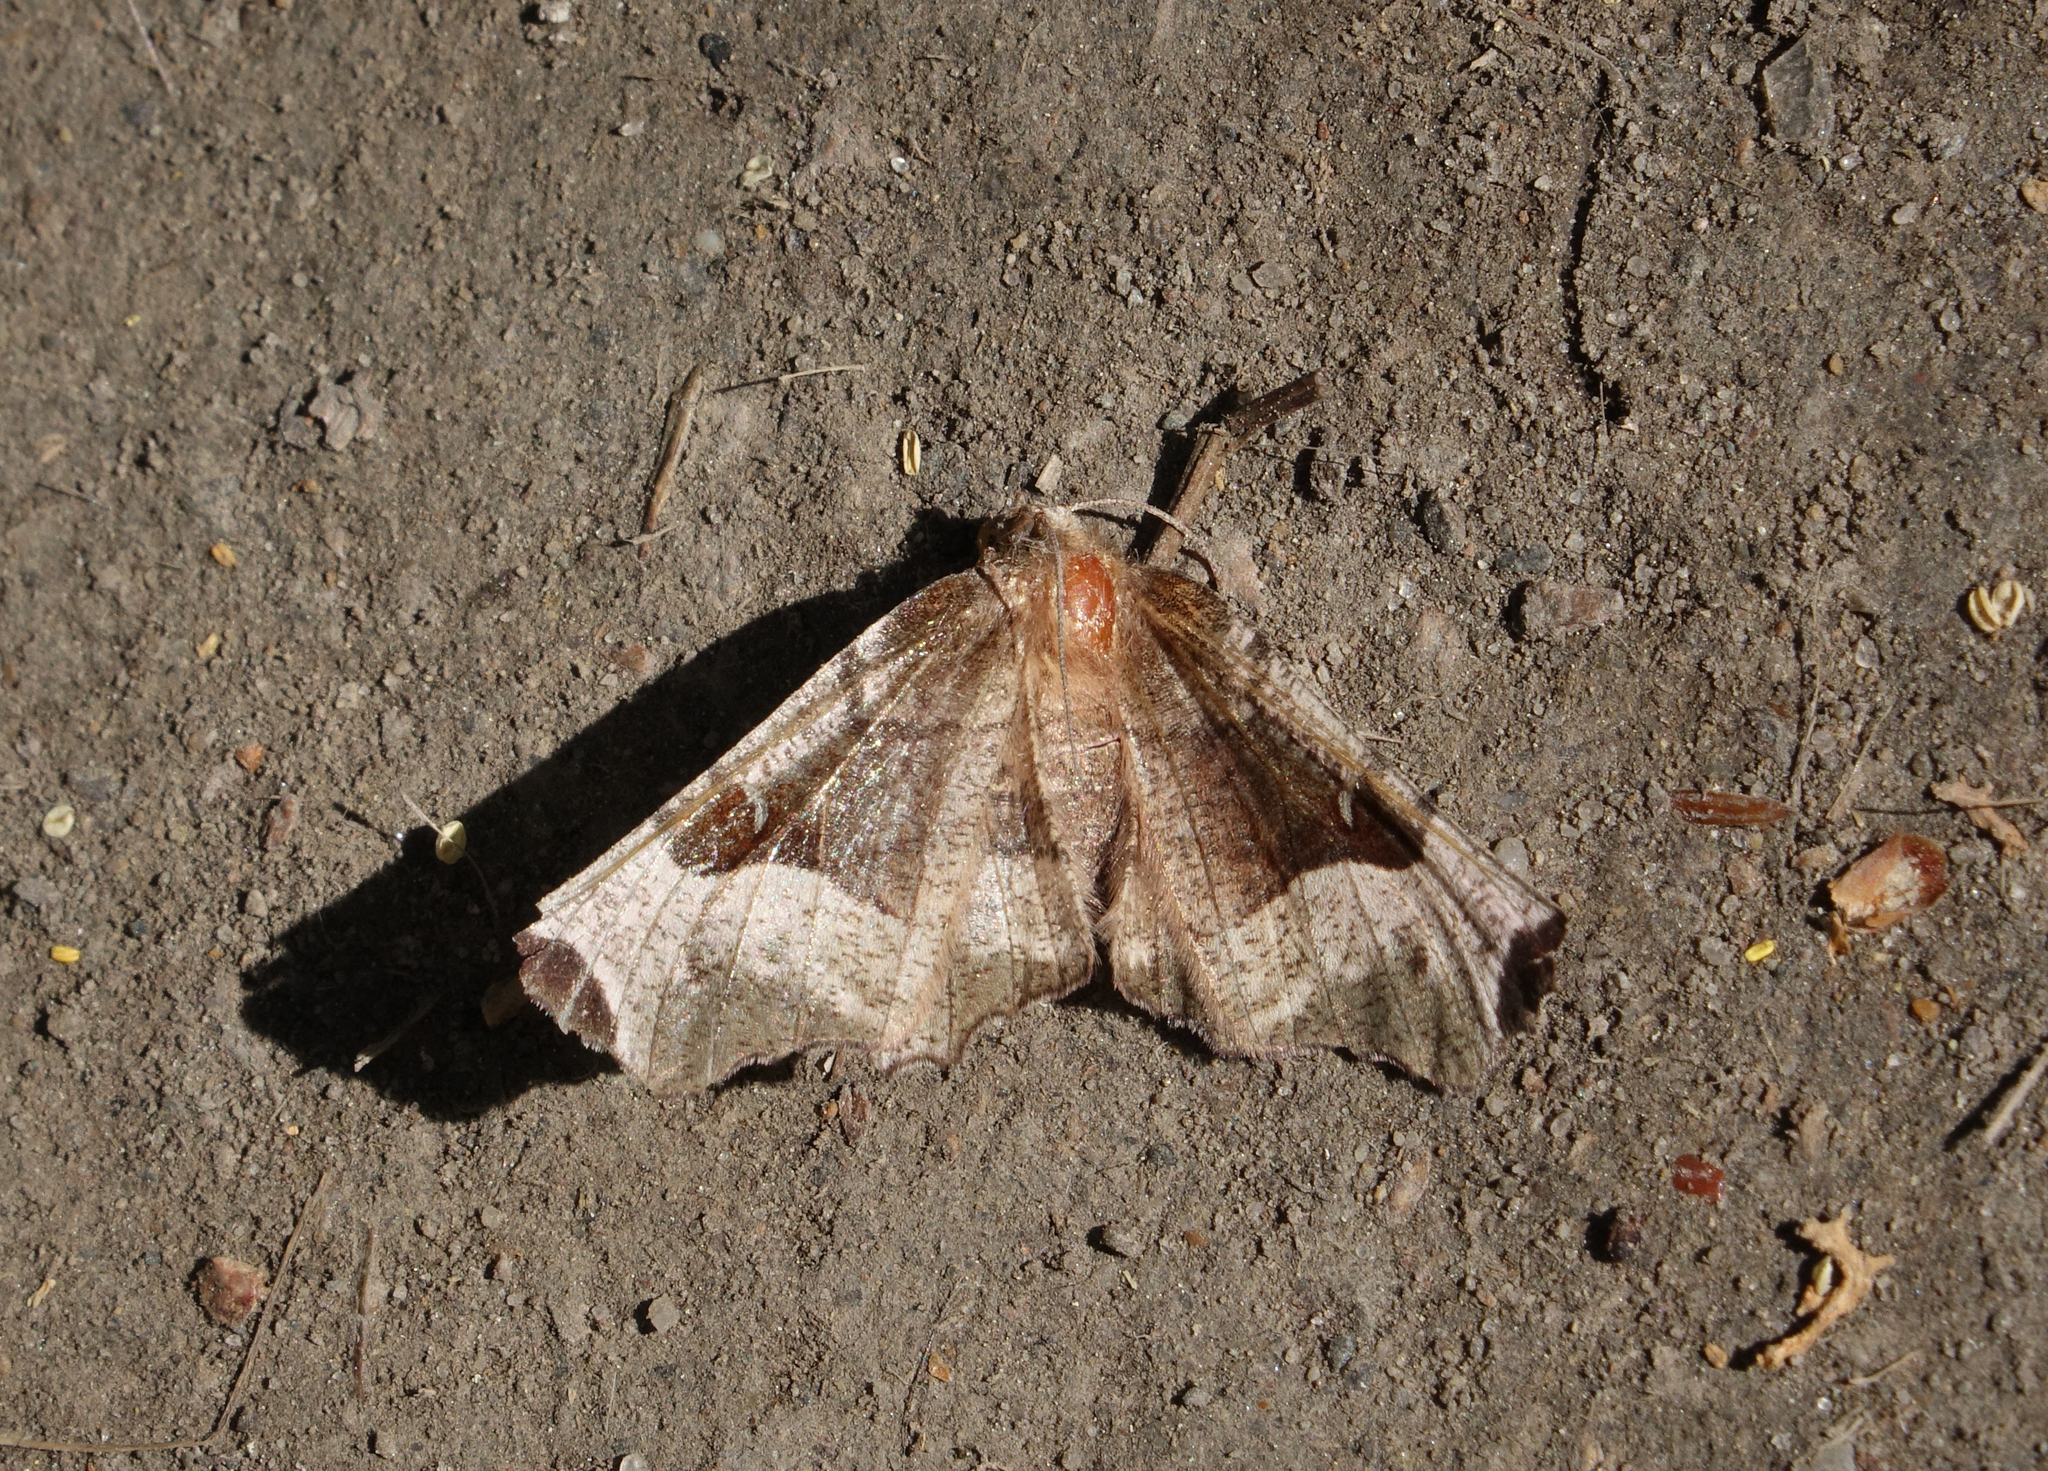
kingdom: Animalia
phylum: Arthropoda
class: Insecta
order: Lepidoptera
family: Geometridae
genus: Selenia
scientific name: Selenia tetralunaria
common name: Purple thorn
